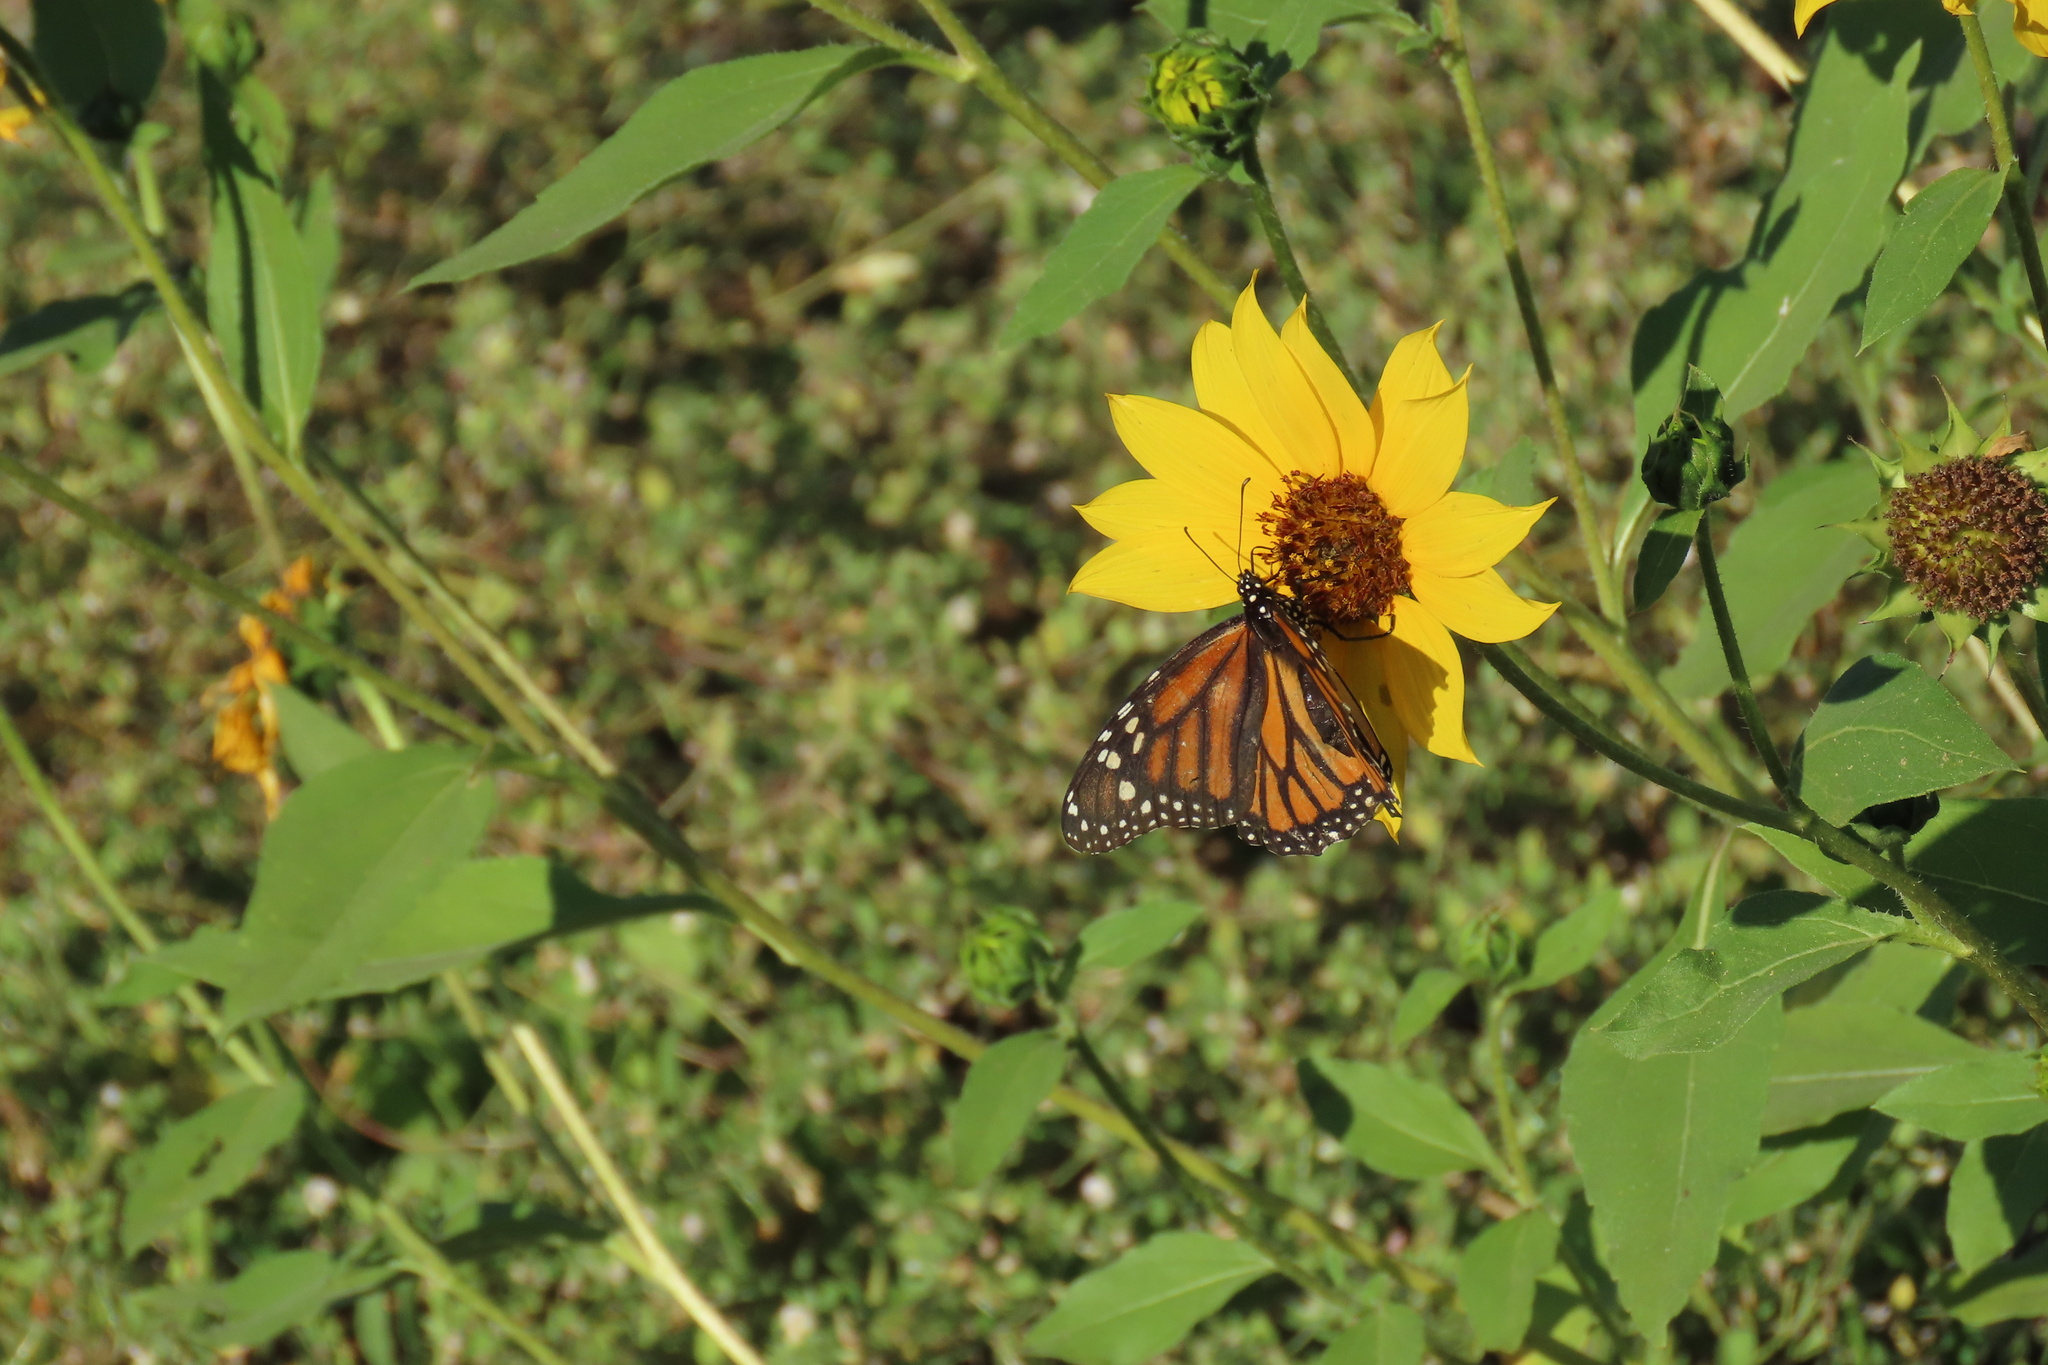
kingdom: Animalia
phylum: Arthropoda
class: Insecta
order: Lepidoptera
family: Nymphalidae
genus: Danaus
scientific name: Danaus plexippus
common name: Monarch
